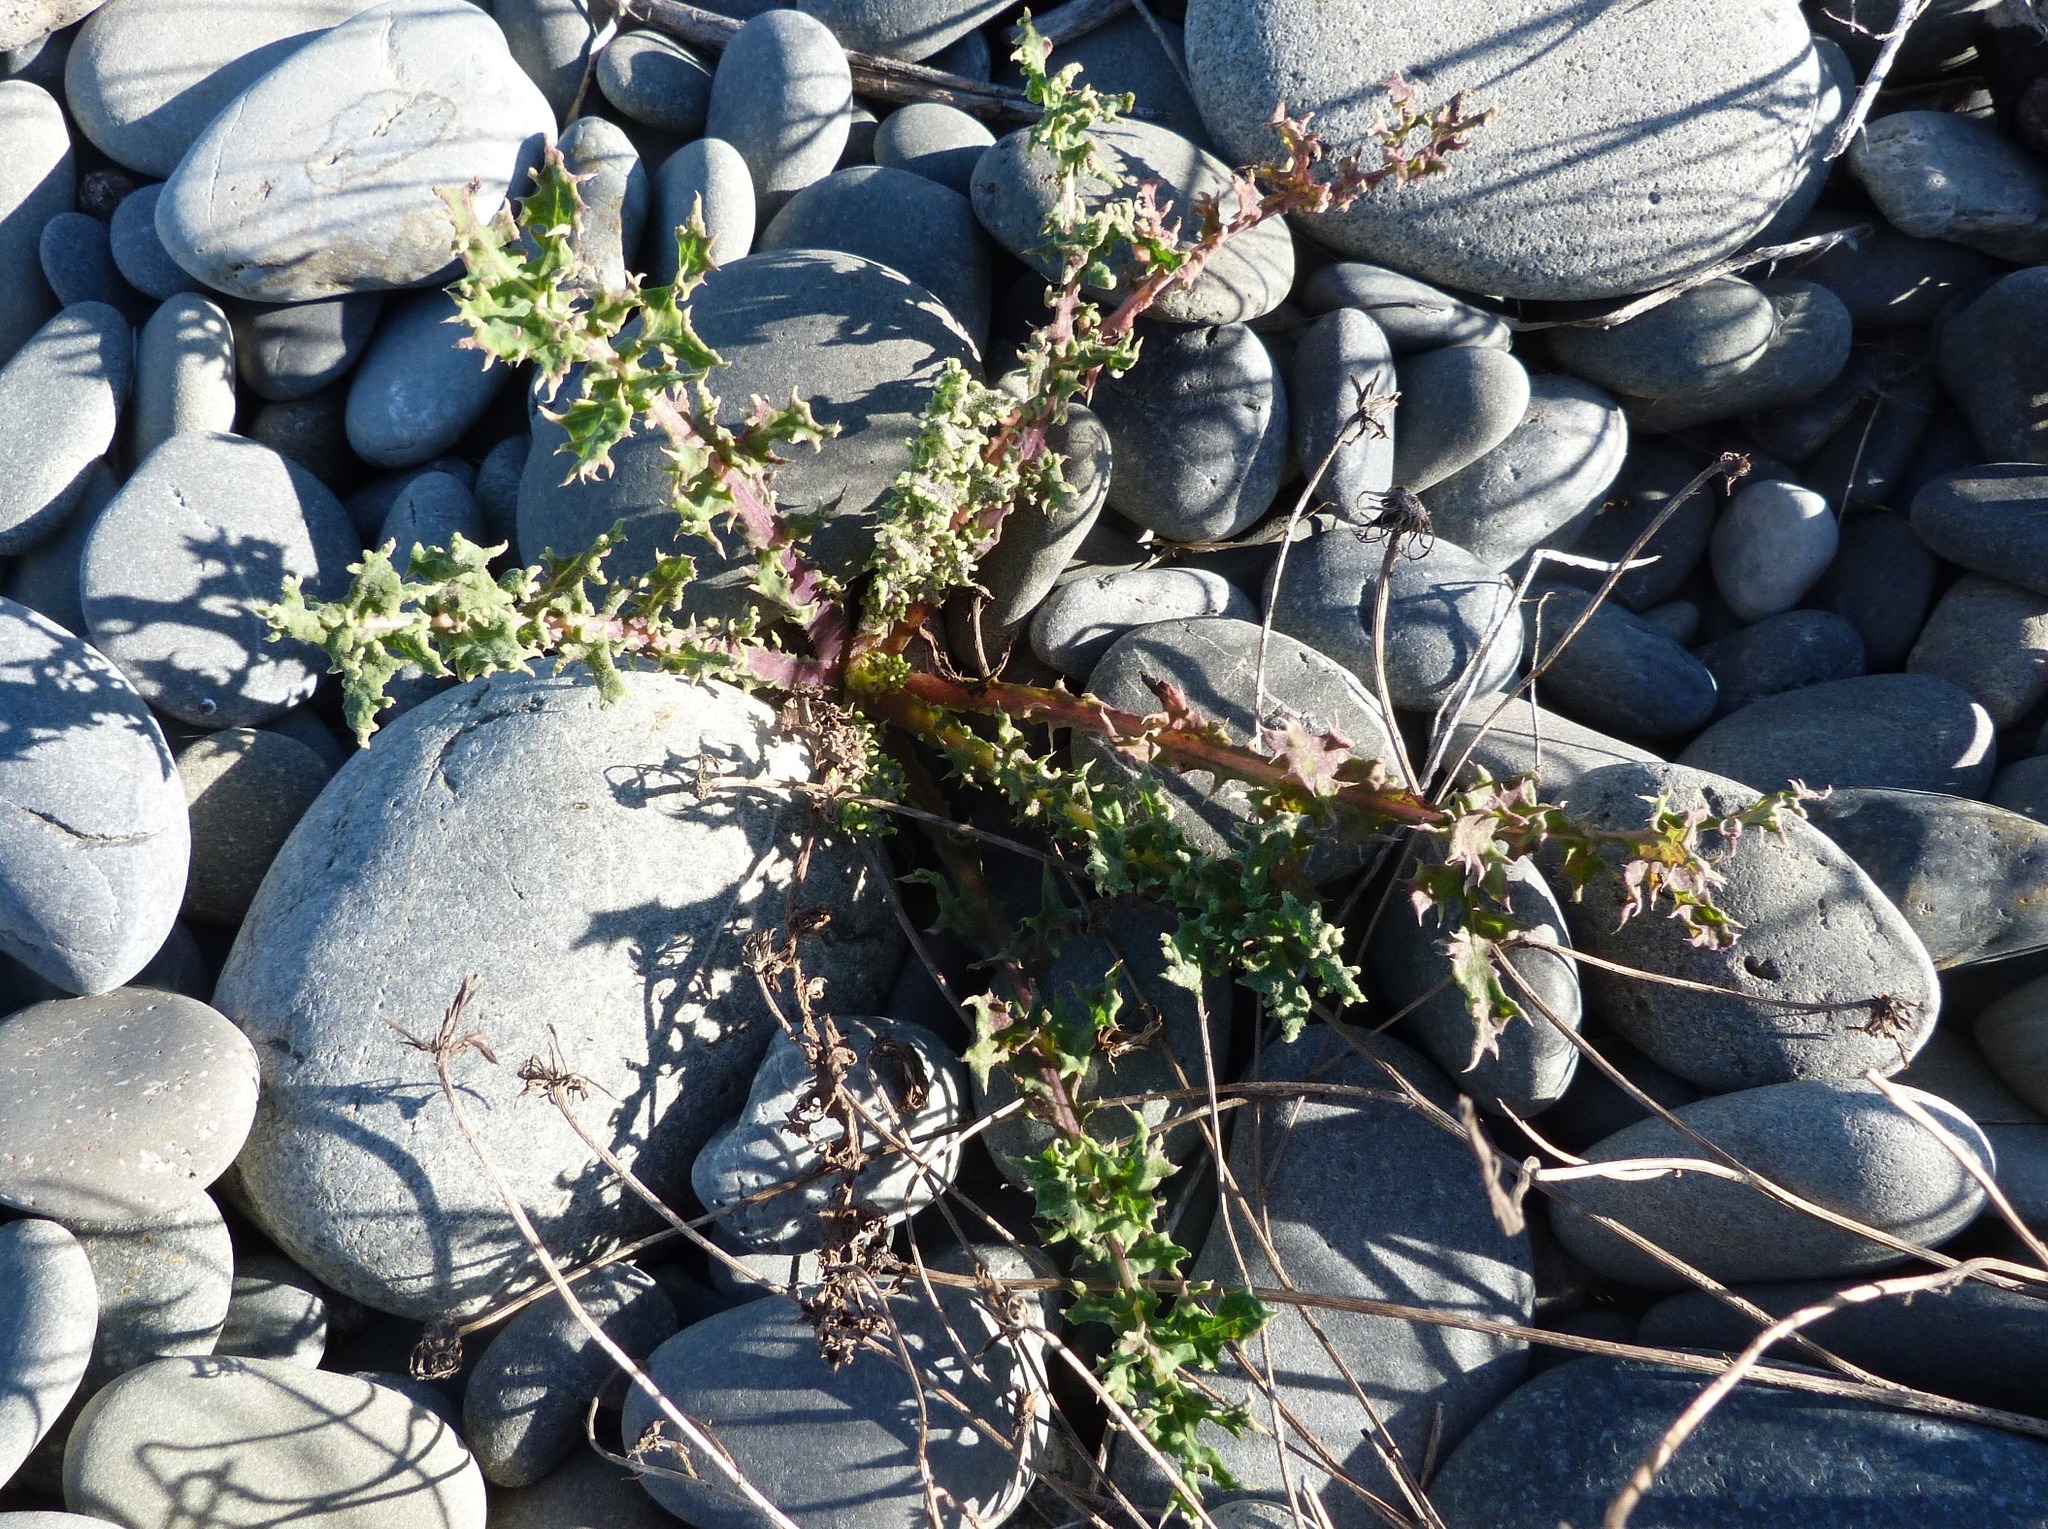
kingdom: Plantae
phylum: Tracheophyta
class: Magnoliopsida
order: Asterales
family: Asteraceae
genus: Sonchus
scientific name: Sonchus asper
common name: Prickly sow-thistle
